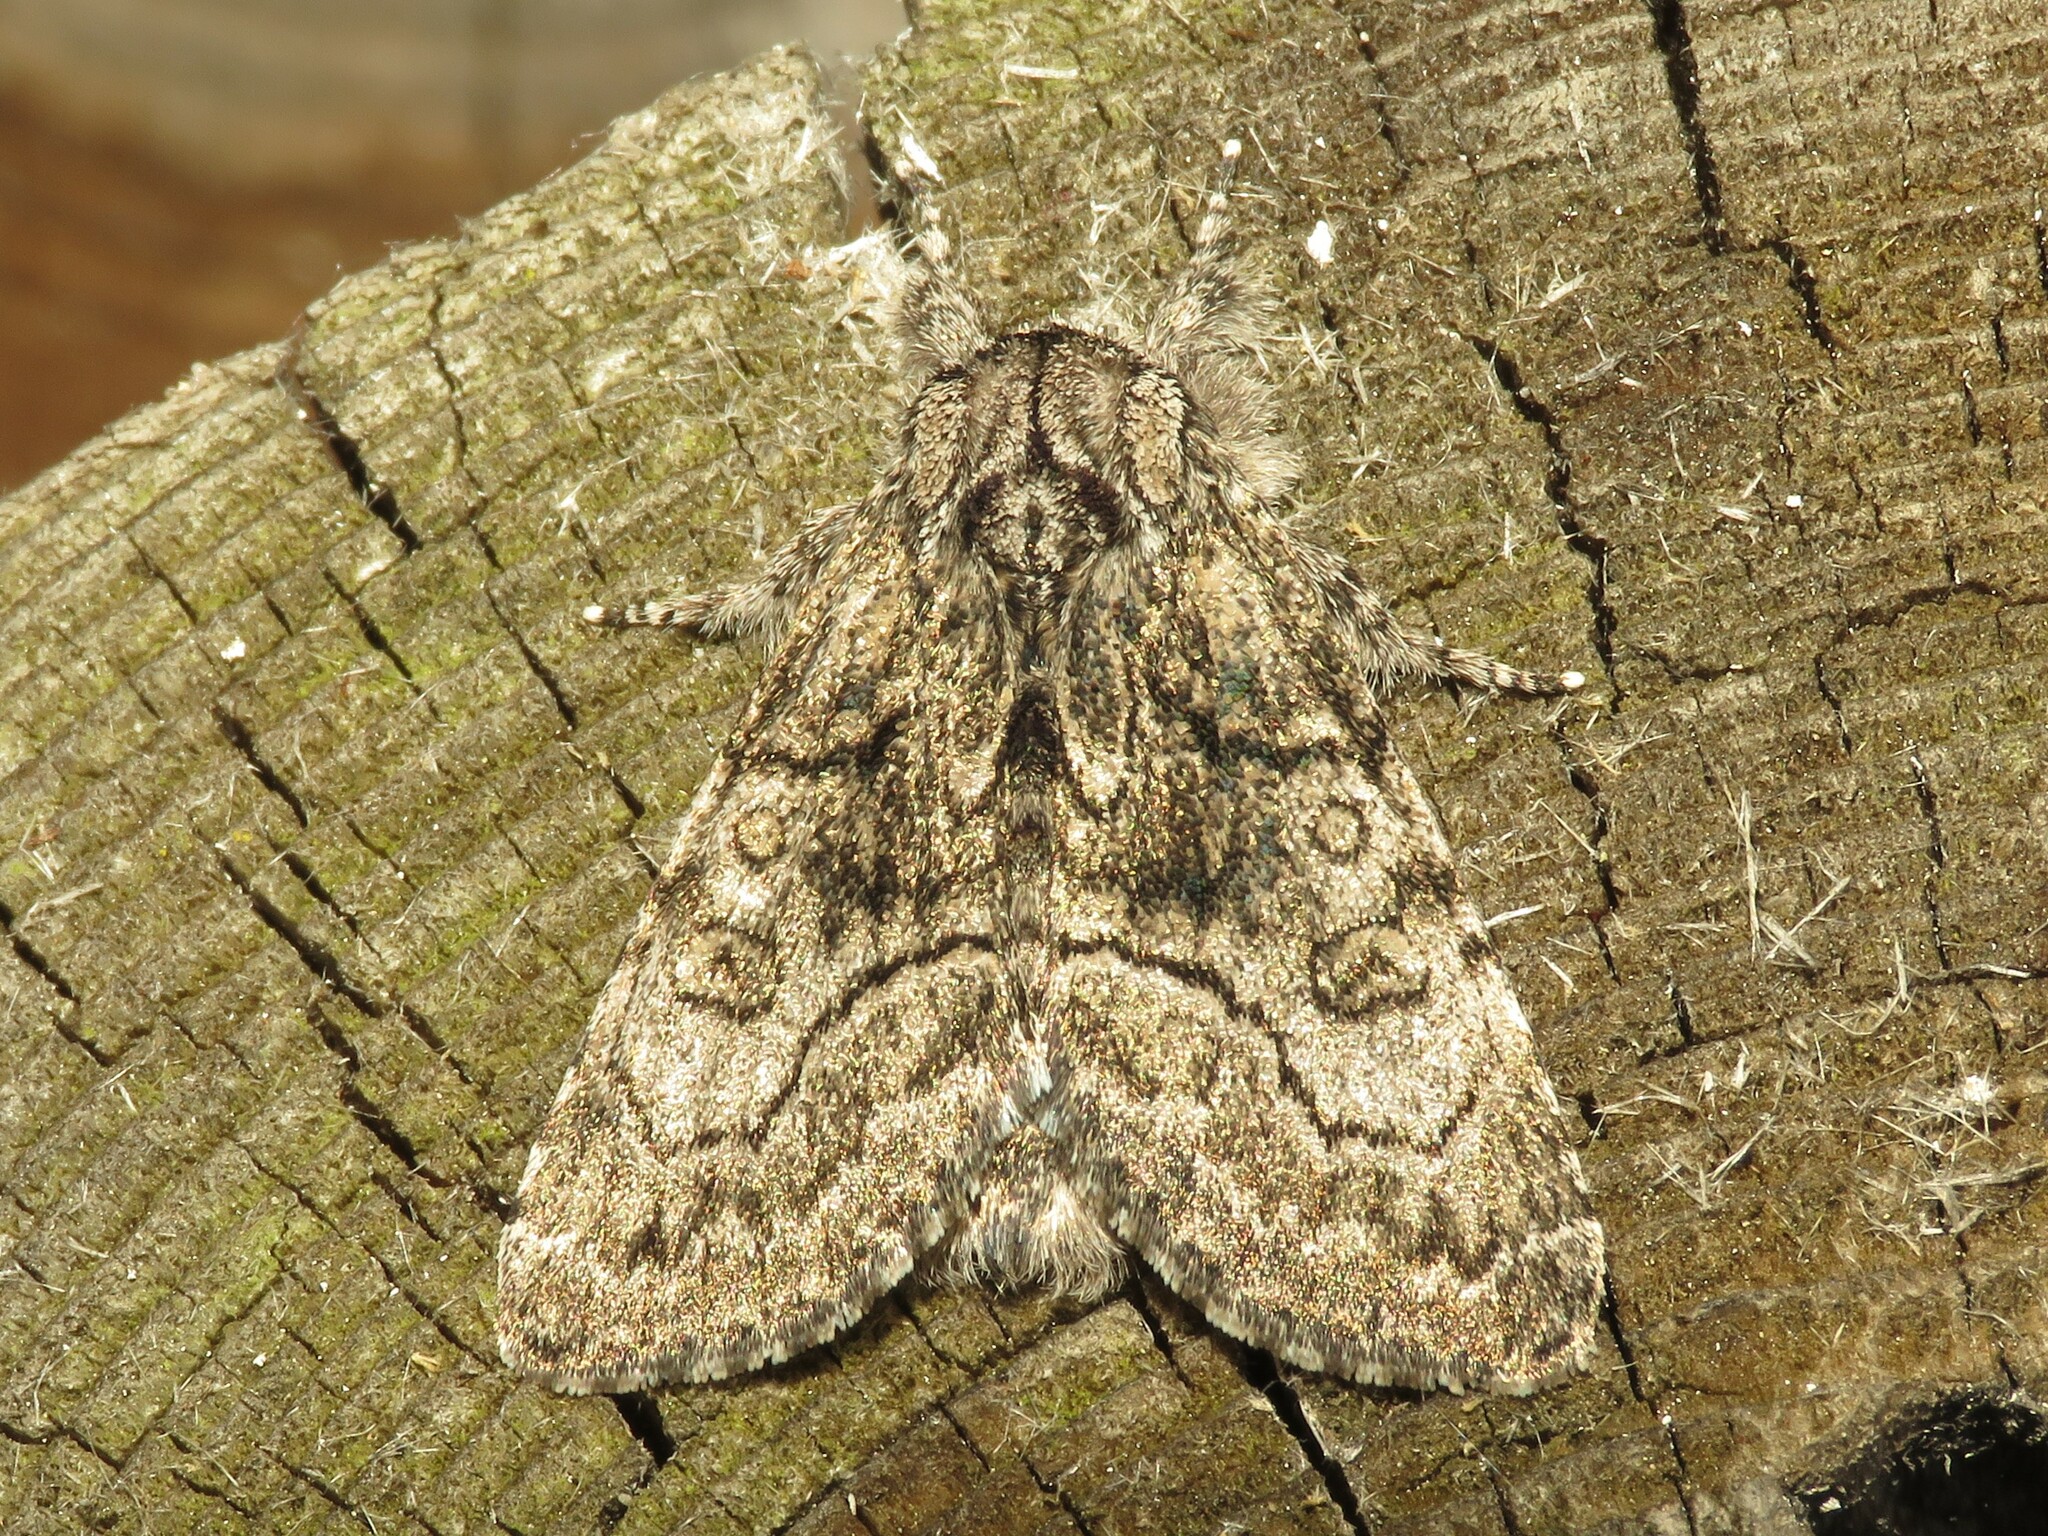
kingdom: Animalia
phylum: Arthropoda
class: Insecta
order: Lepidoptera
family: Noctuidae
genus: Raphia
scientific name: Raphia frater
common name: Brother
